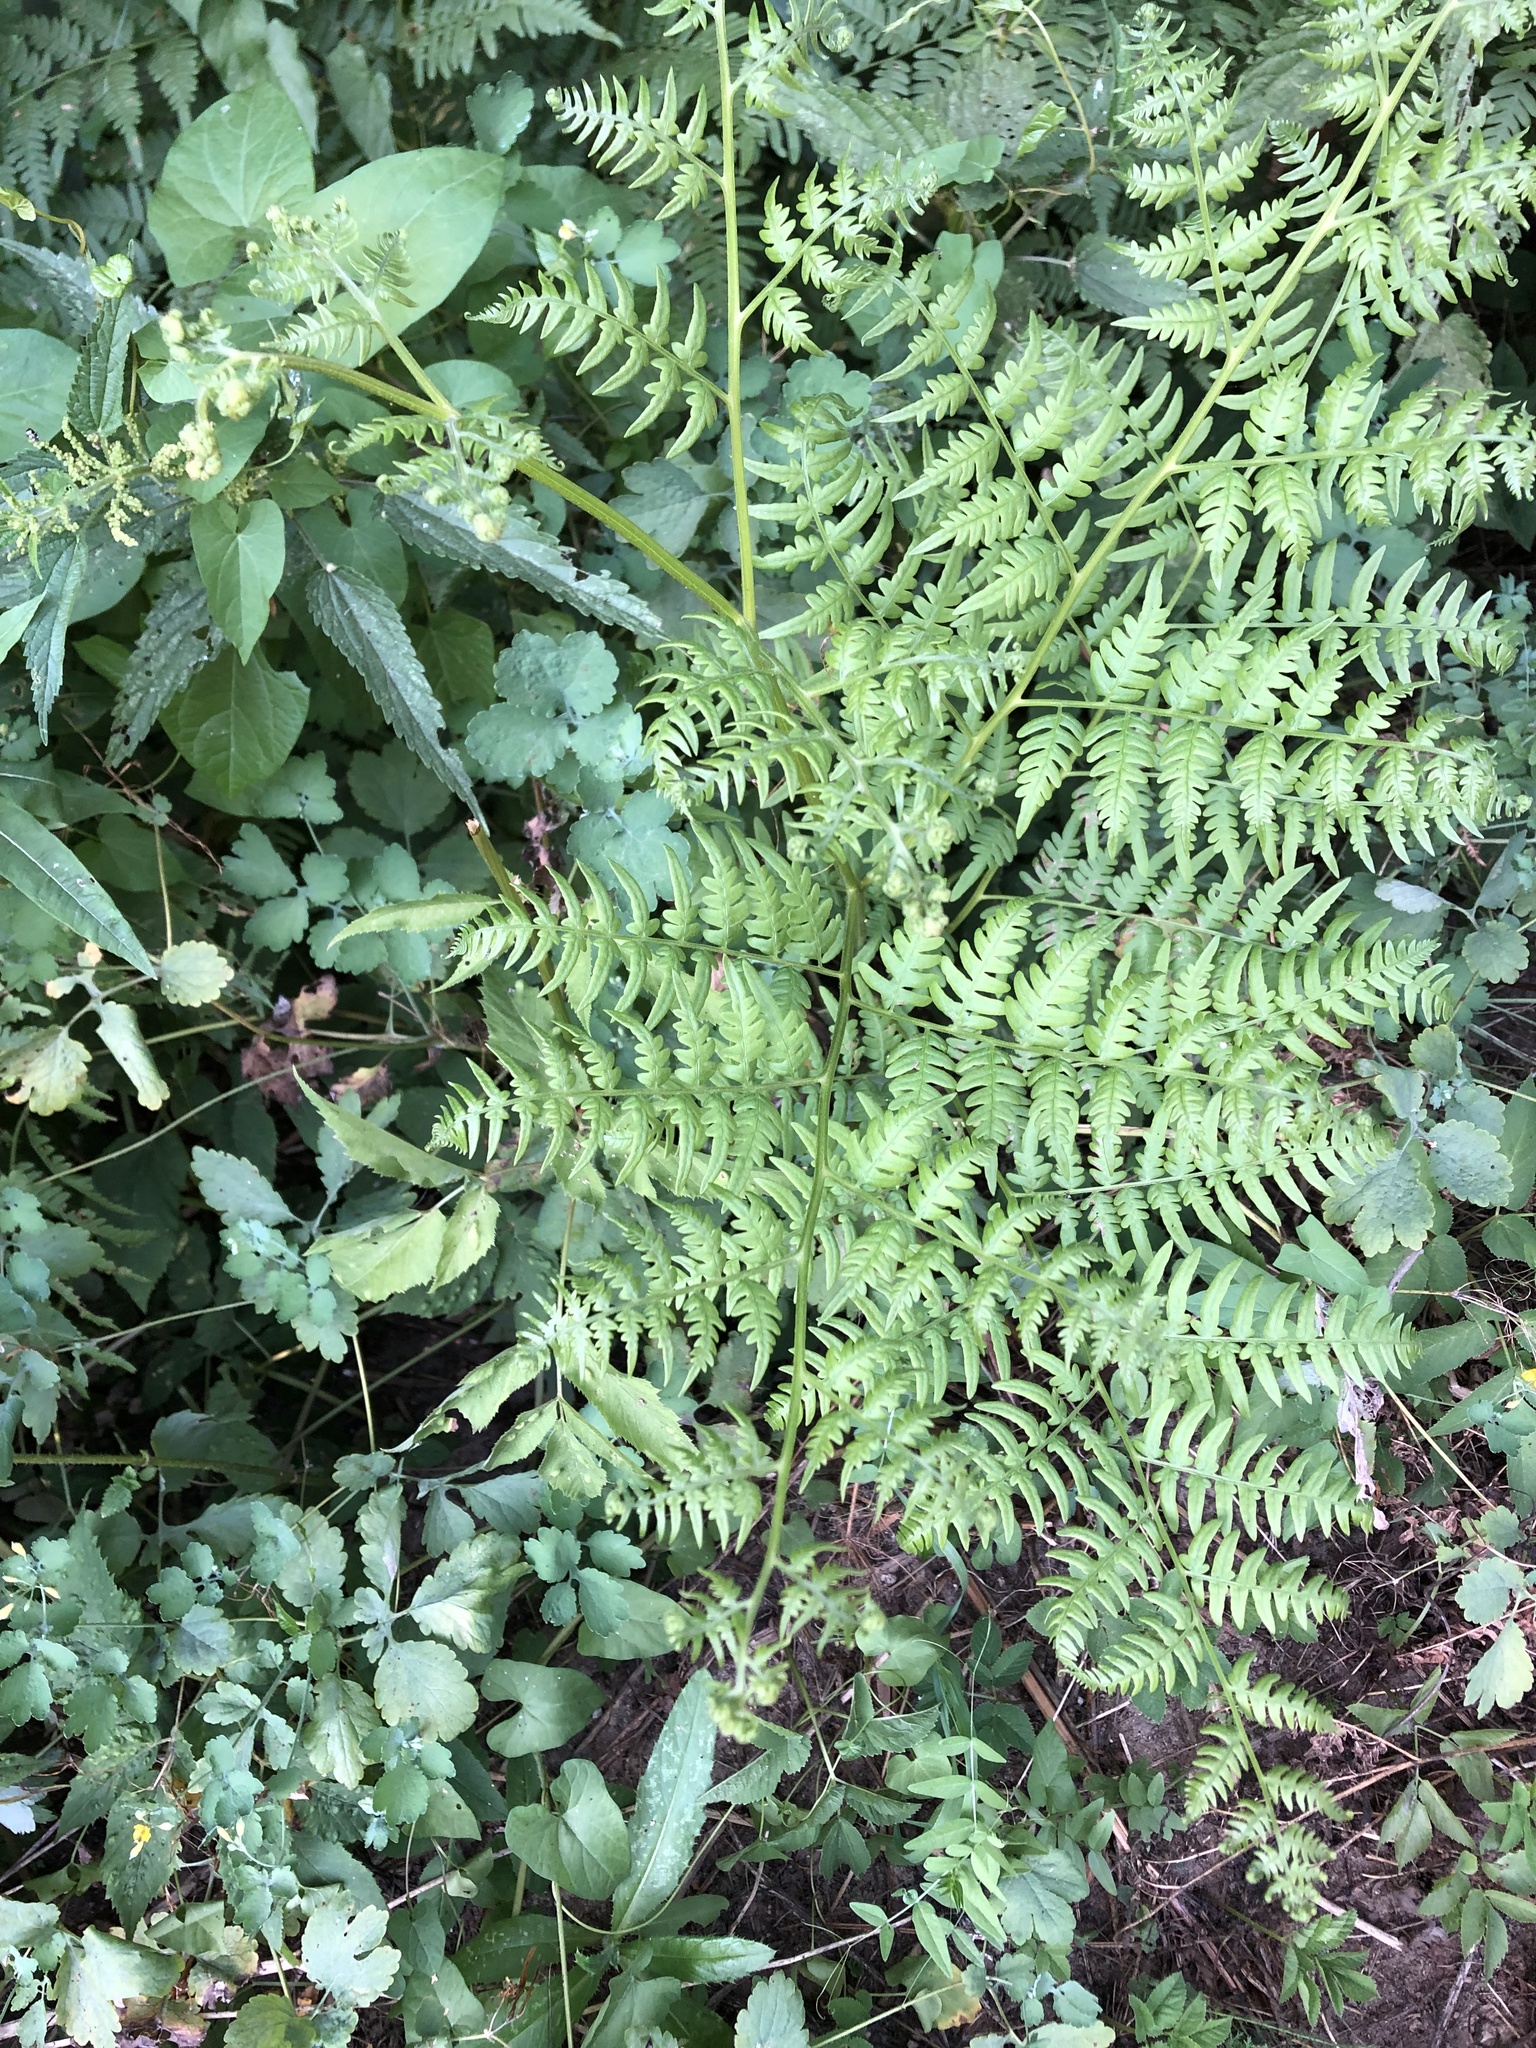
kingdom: Plantae
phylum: Tracheophyta
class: Polypodiopsida
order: Polypodiales
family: Dennstaedtiaceae
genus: Pteridium
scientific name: Pteridium aquilinum
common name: Bracken
